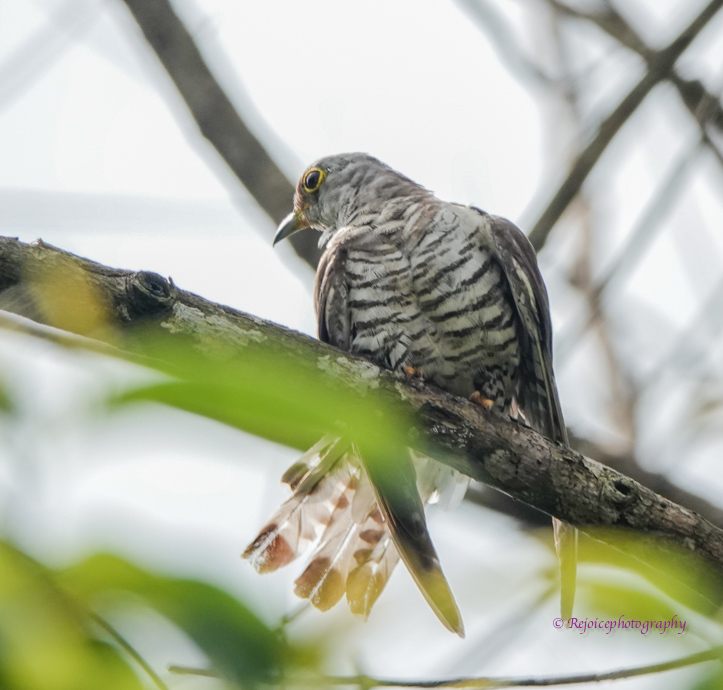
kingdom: Animalia
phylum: Chordata
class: Aves
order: Cuculiformes
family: Cuculidae
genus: Cuculus
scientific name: Cuculus micropterus
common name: Indian cuckoo
